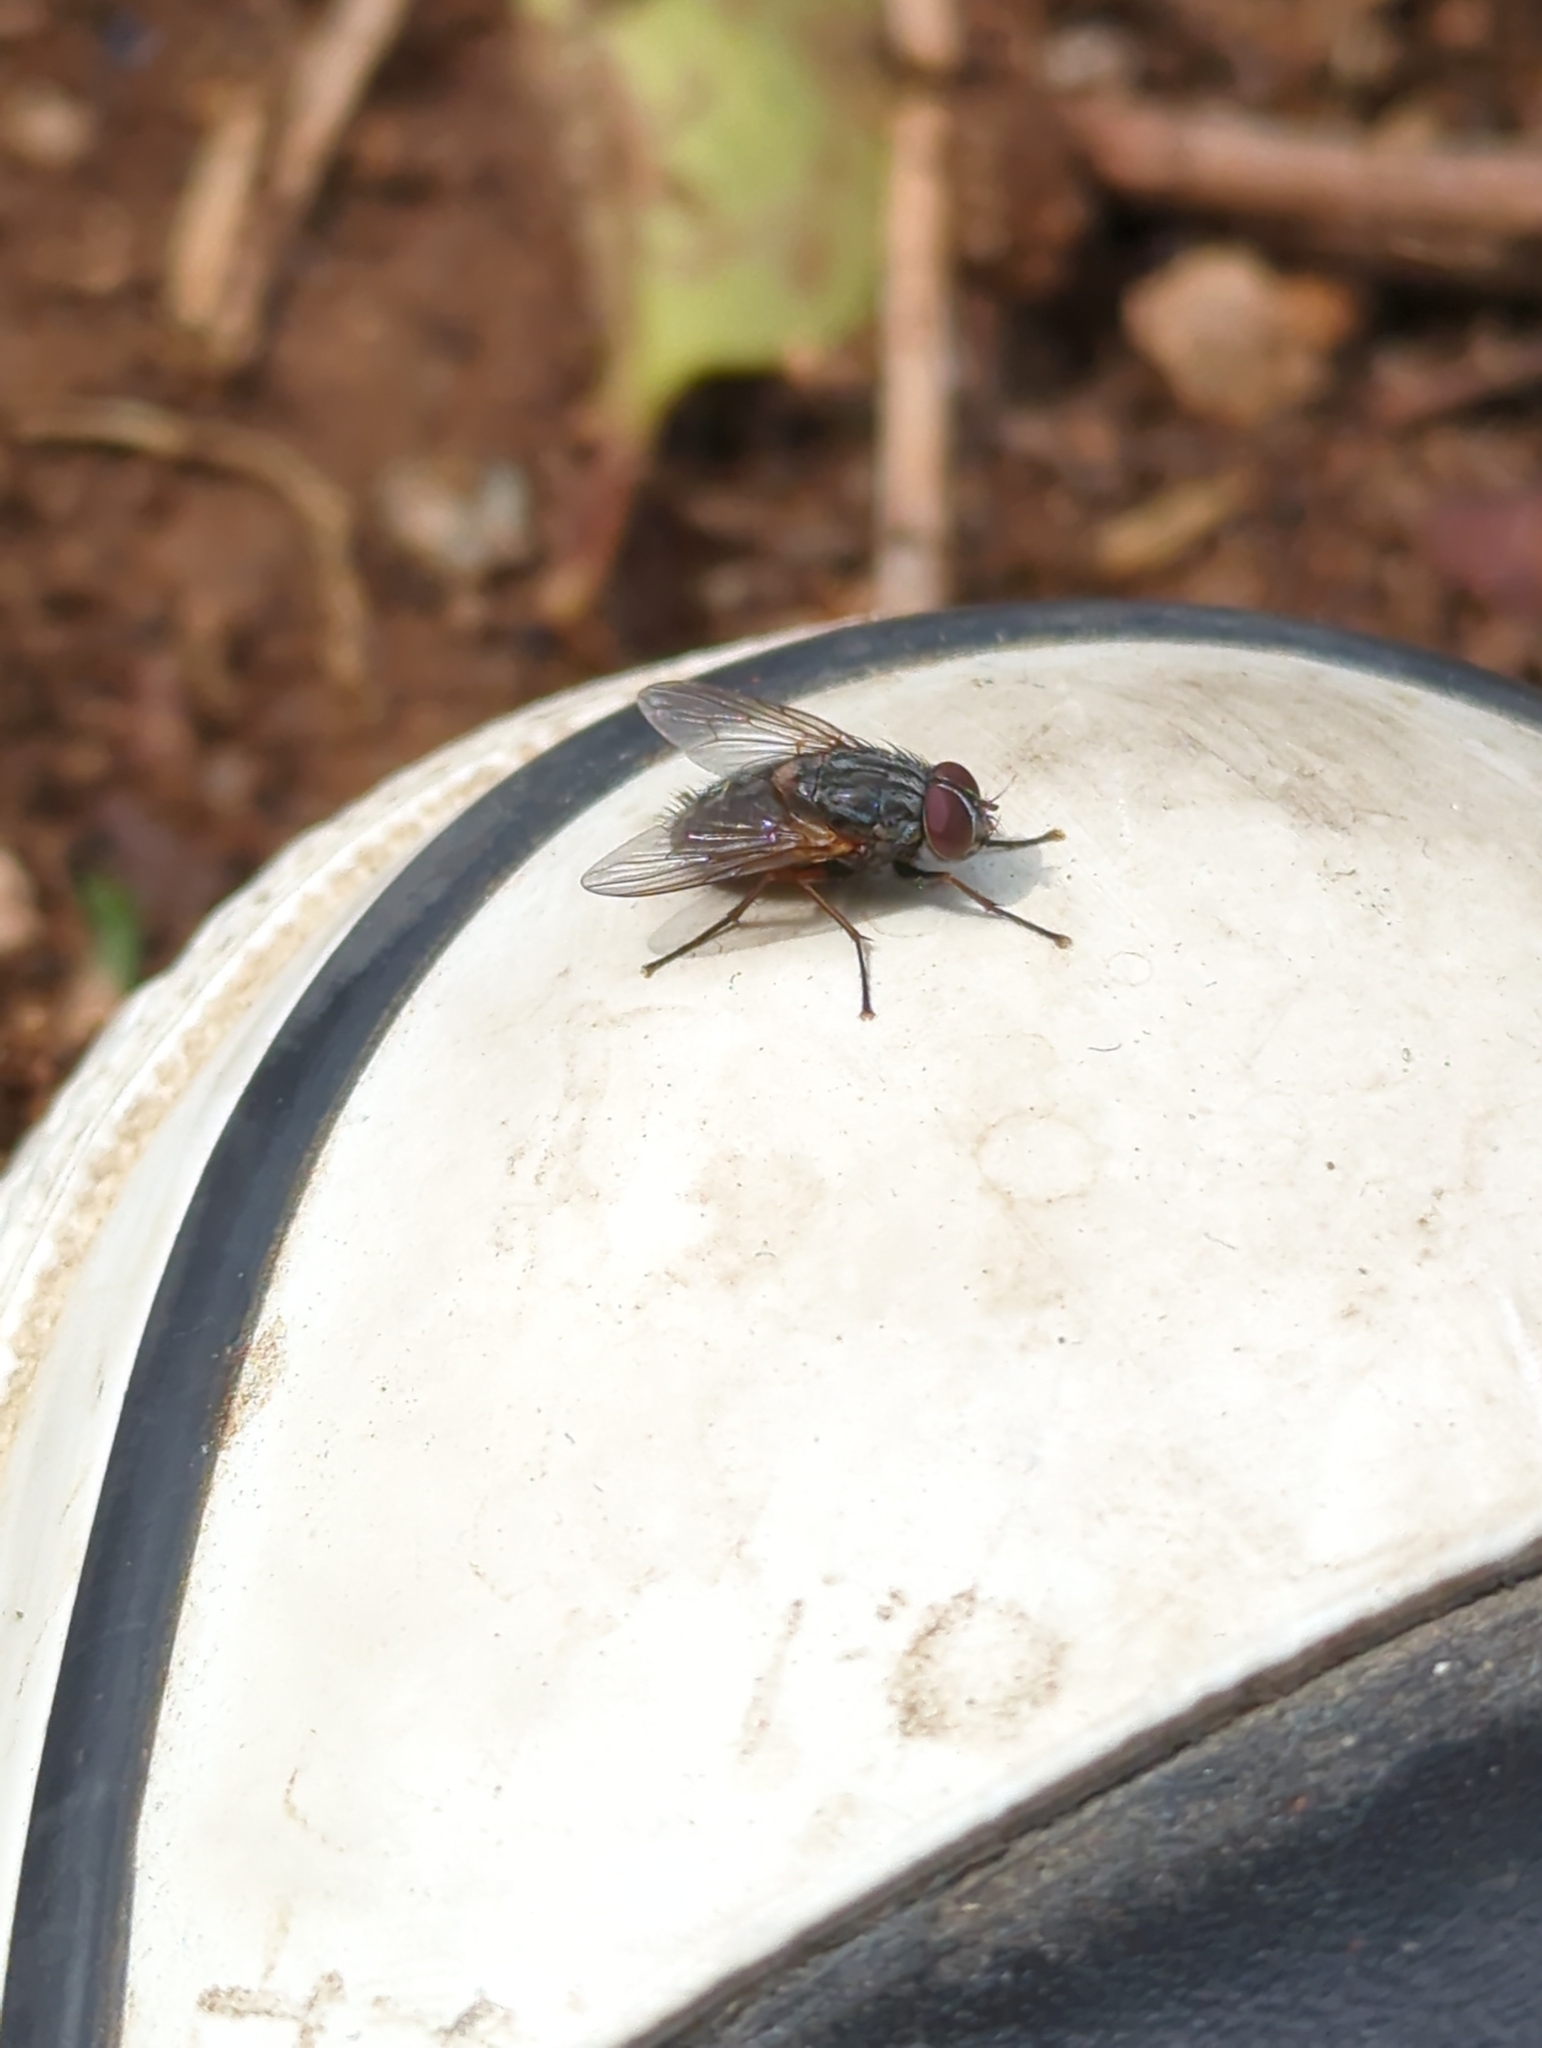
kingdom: Animalia
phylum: Arthropoda
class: Insecta
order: Diptera
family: Muscidae
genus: Muscina
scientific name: Muscina stabulans
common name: False stable fly
